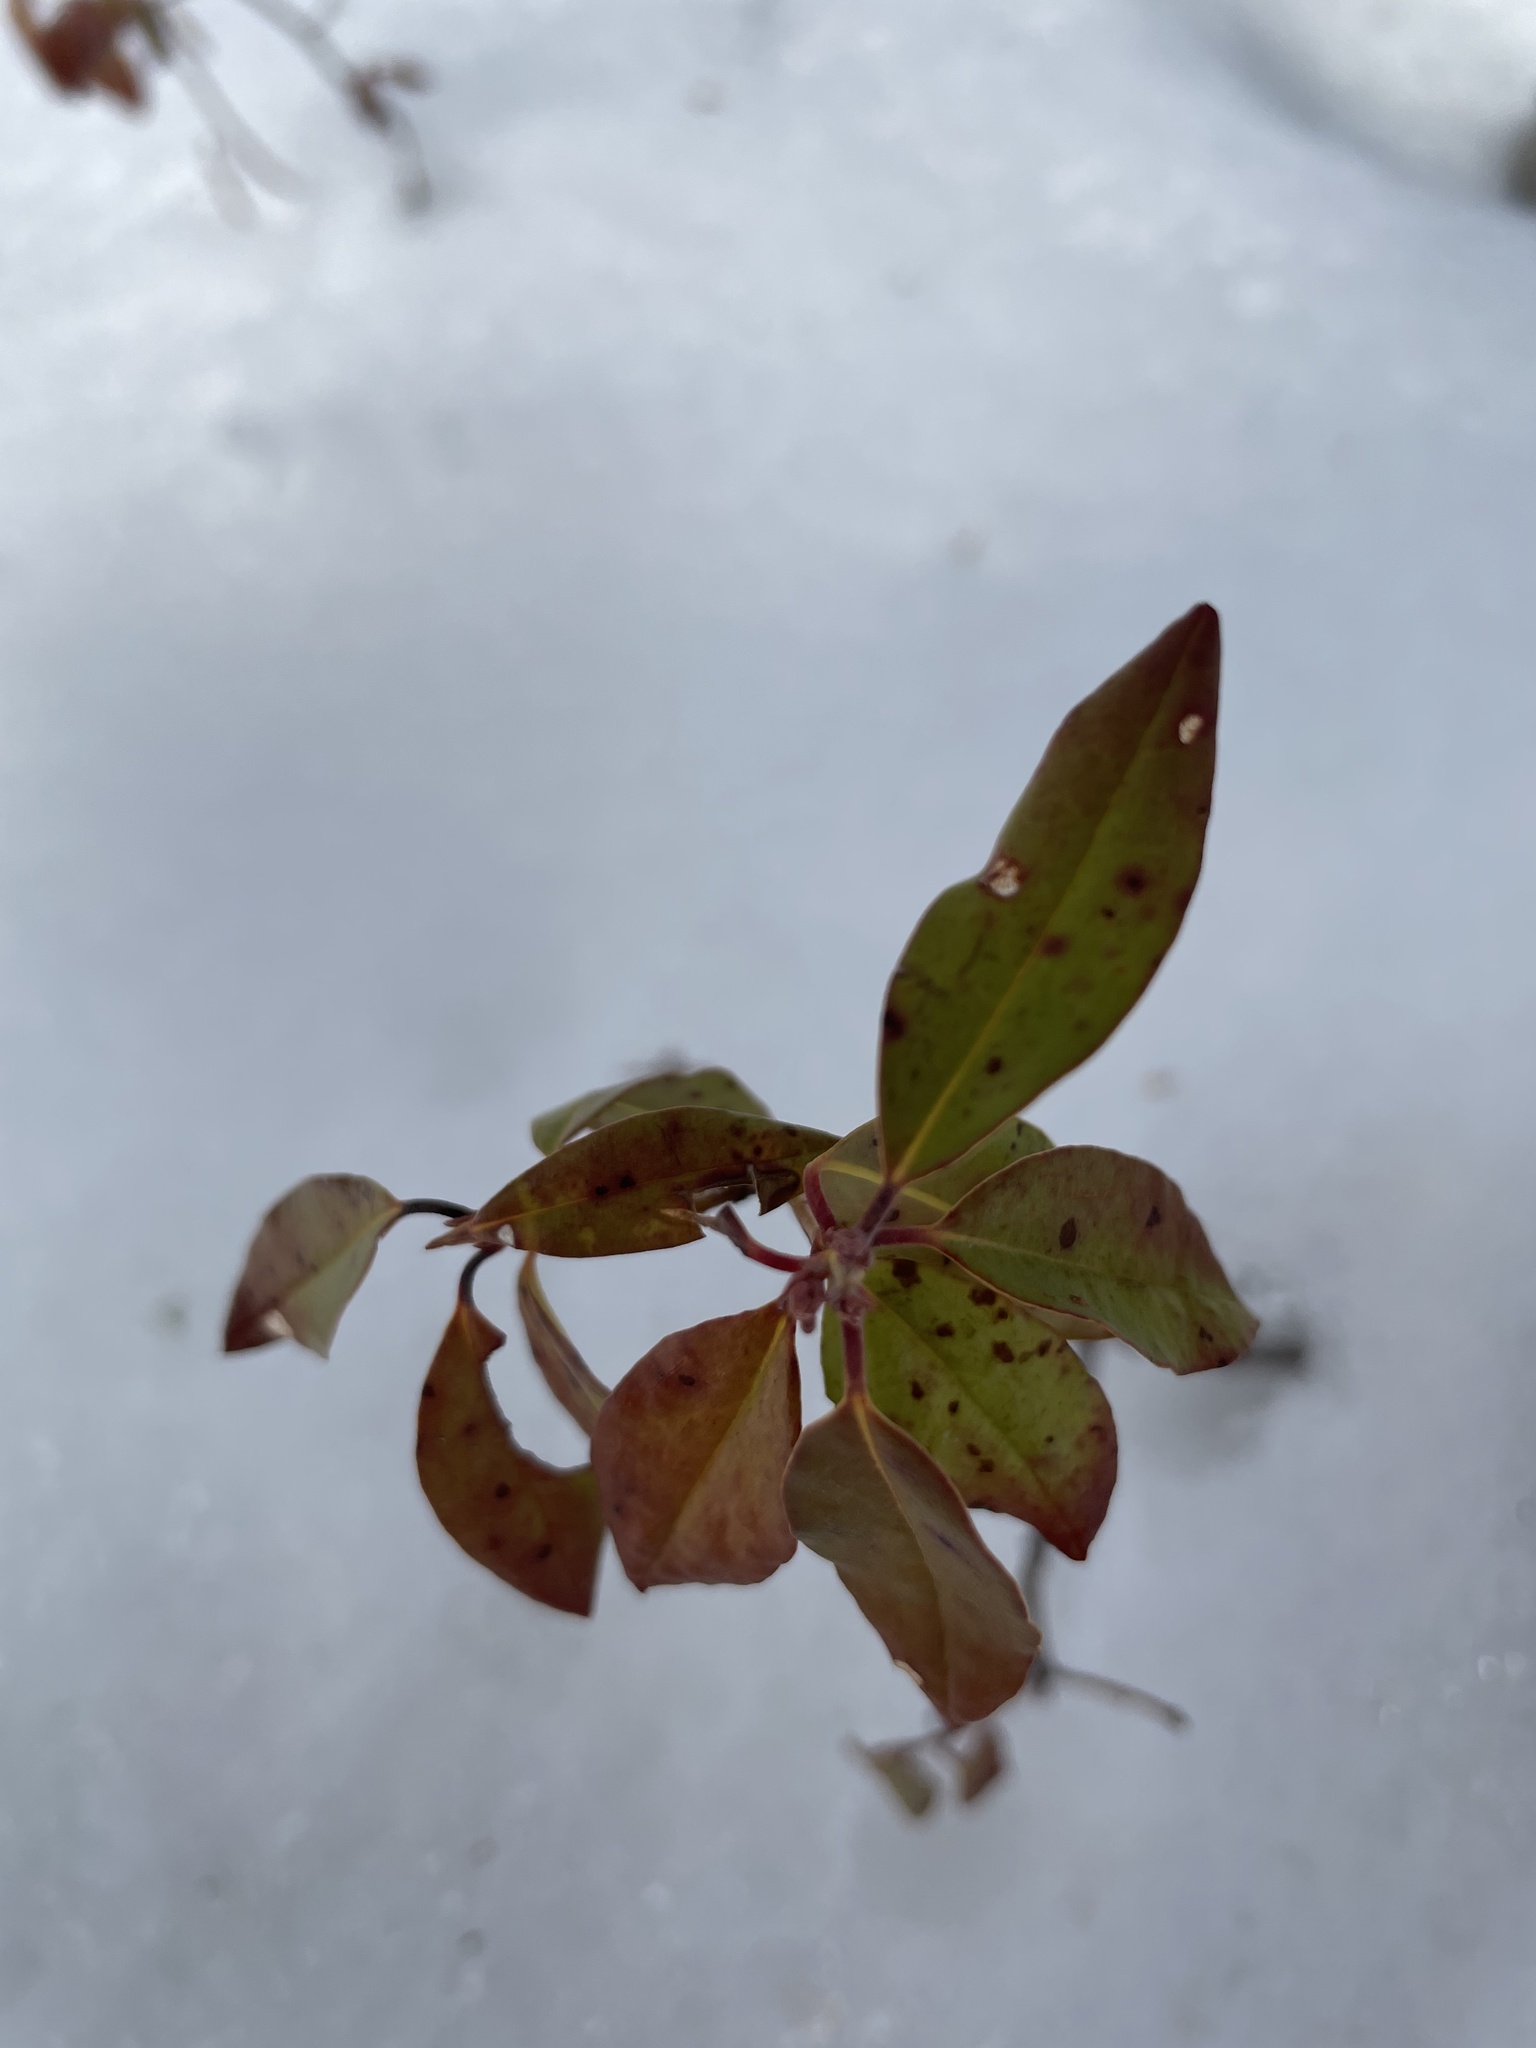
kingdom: Plantae
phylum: Tracheophyta
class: Magnoliopsida
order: Ericales
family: Ericaceae
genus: Kalmia
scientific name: Kalmia angustifolia
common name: Sheep-laurel
